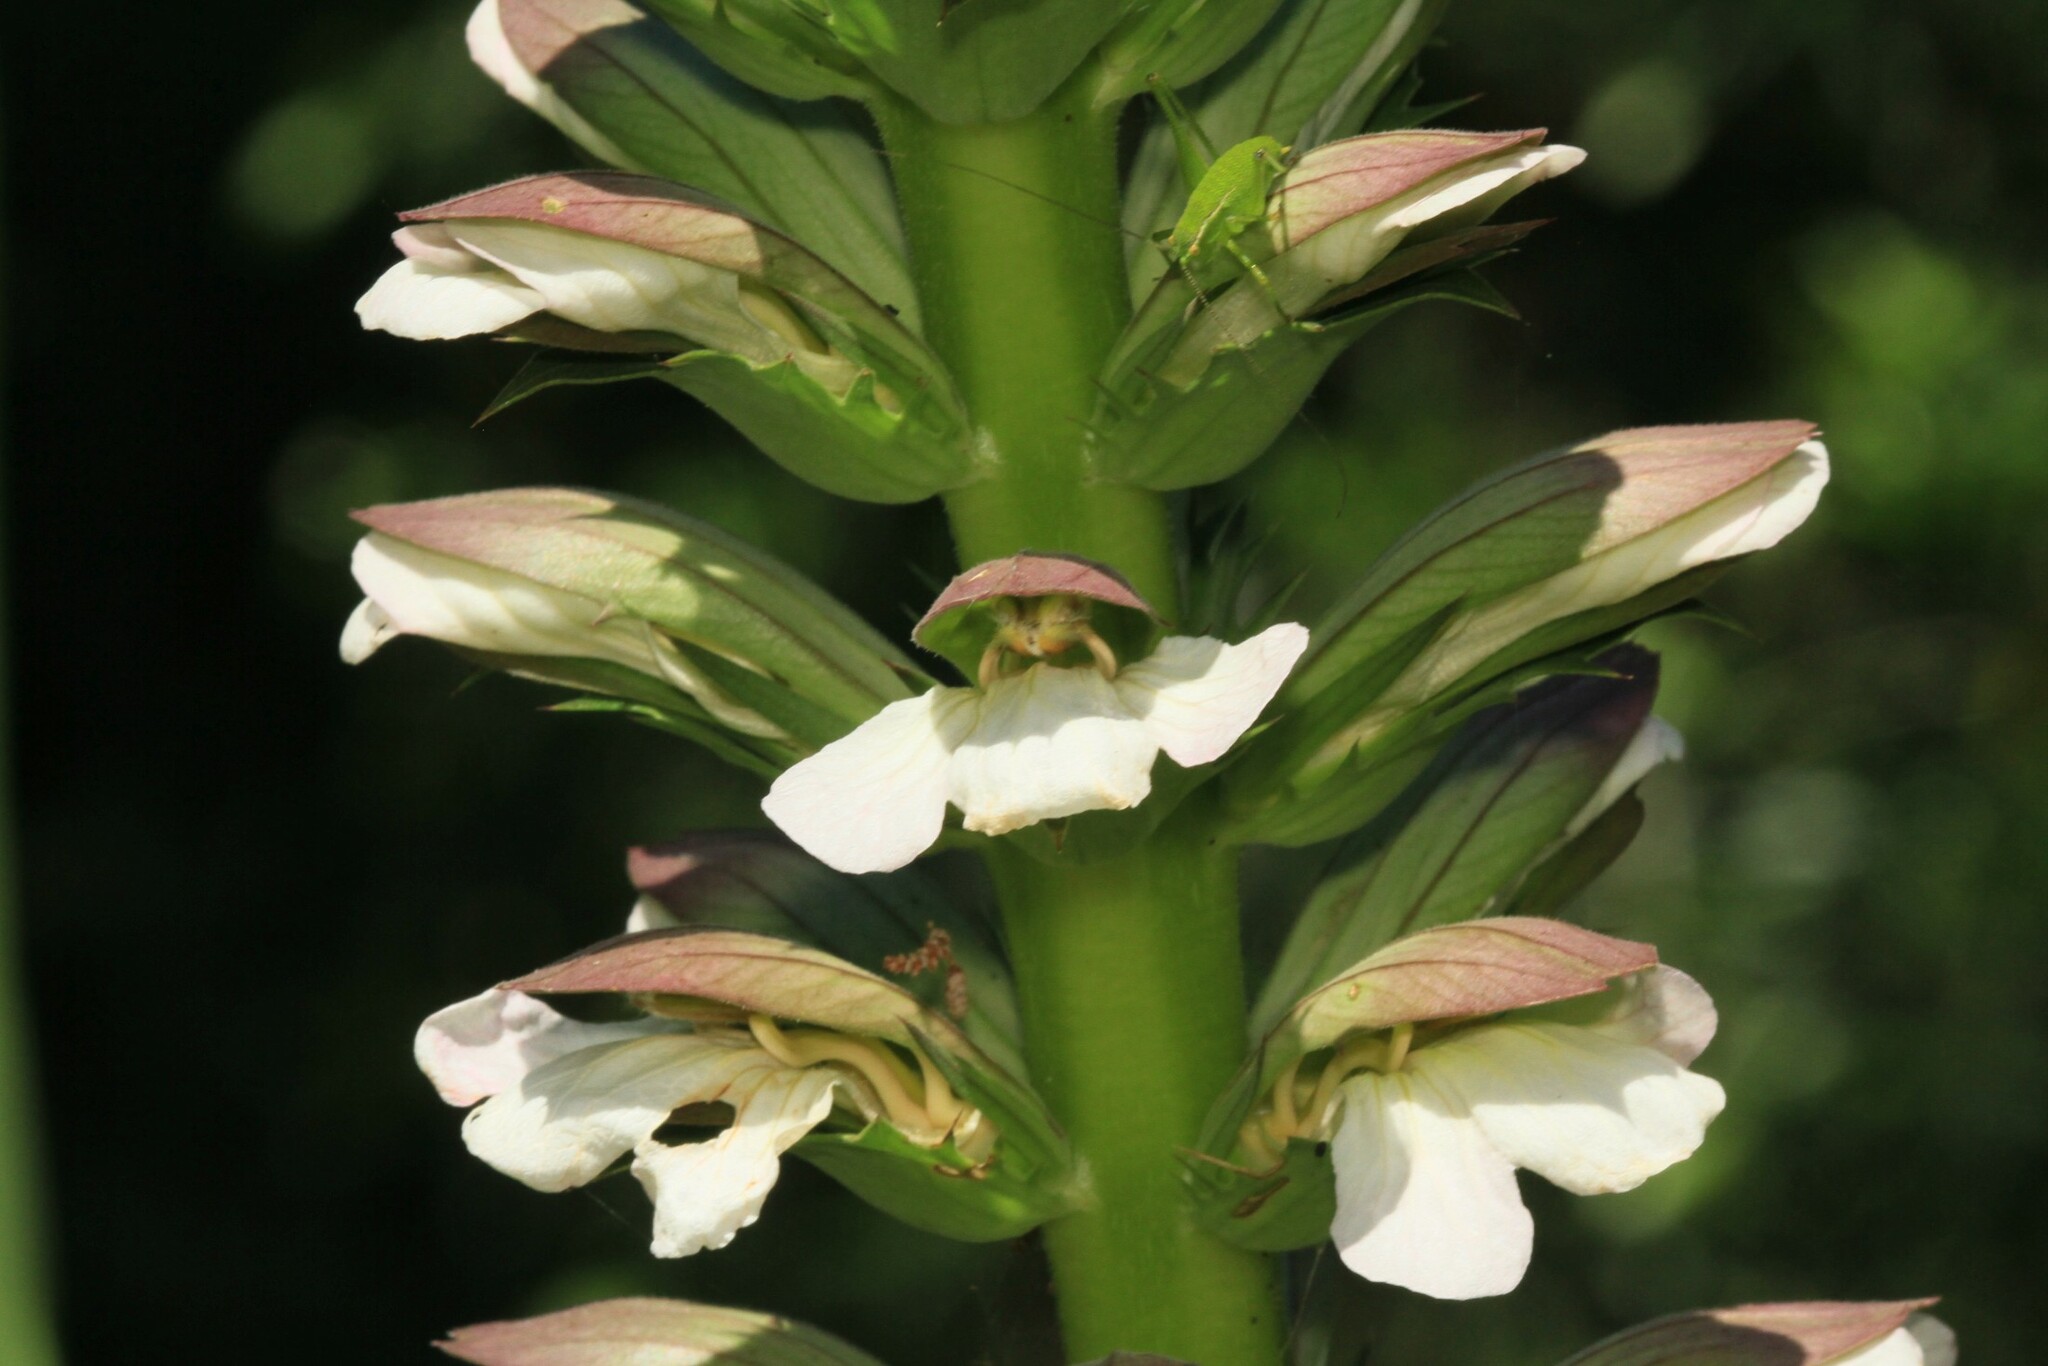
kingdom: Plantae
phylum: Tracheophyta
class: Magnoliopsida
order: Lamiales
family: Acanthaceae
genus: Acanthus
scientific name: Acanthus mollis
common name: Bear's-breech
